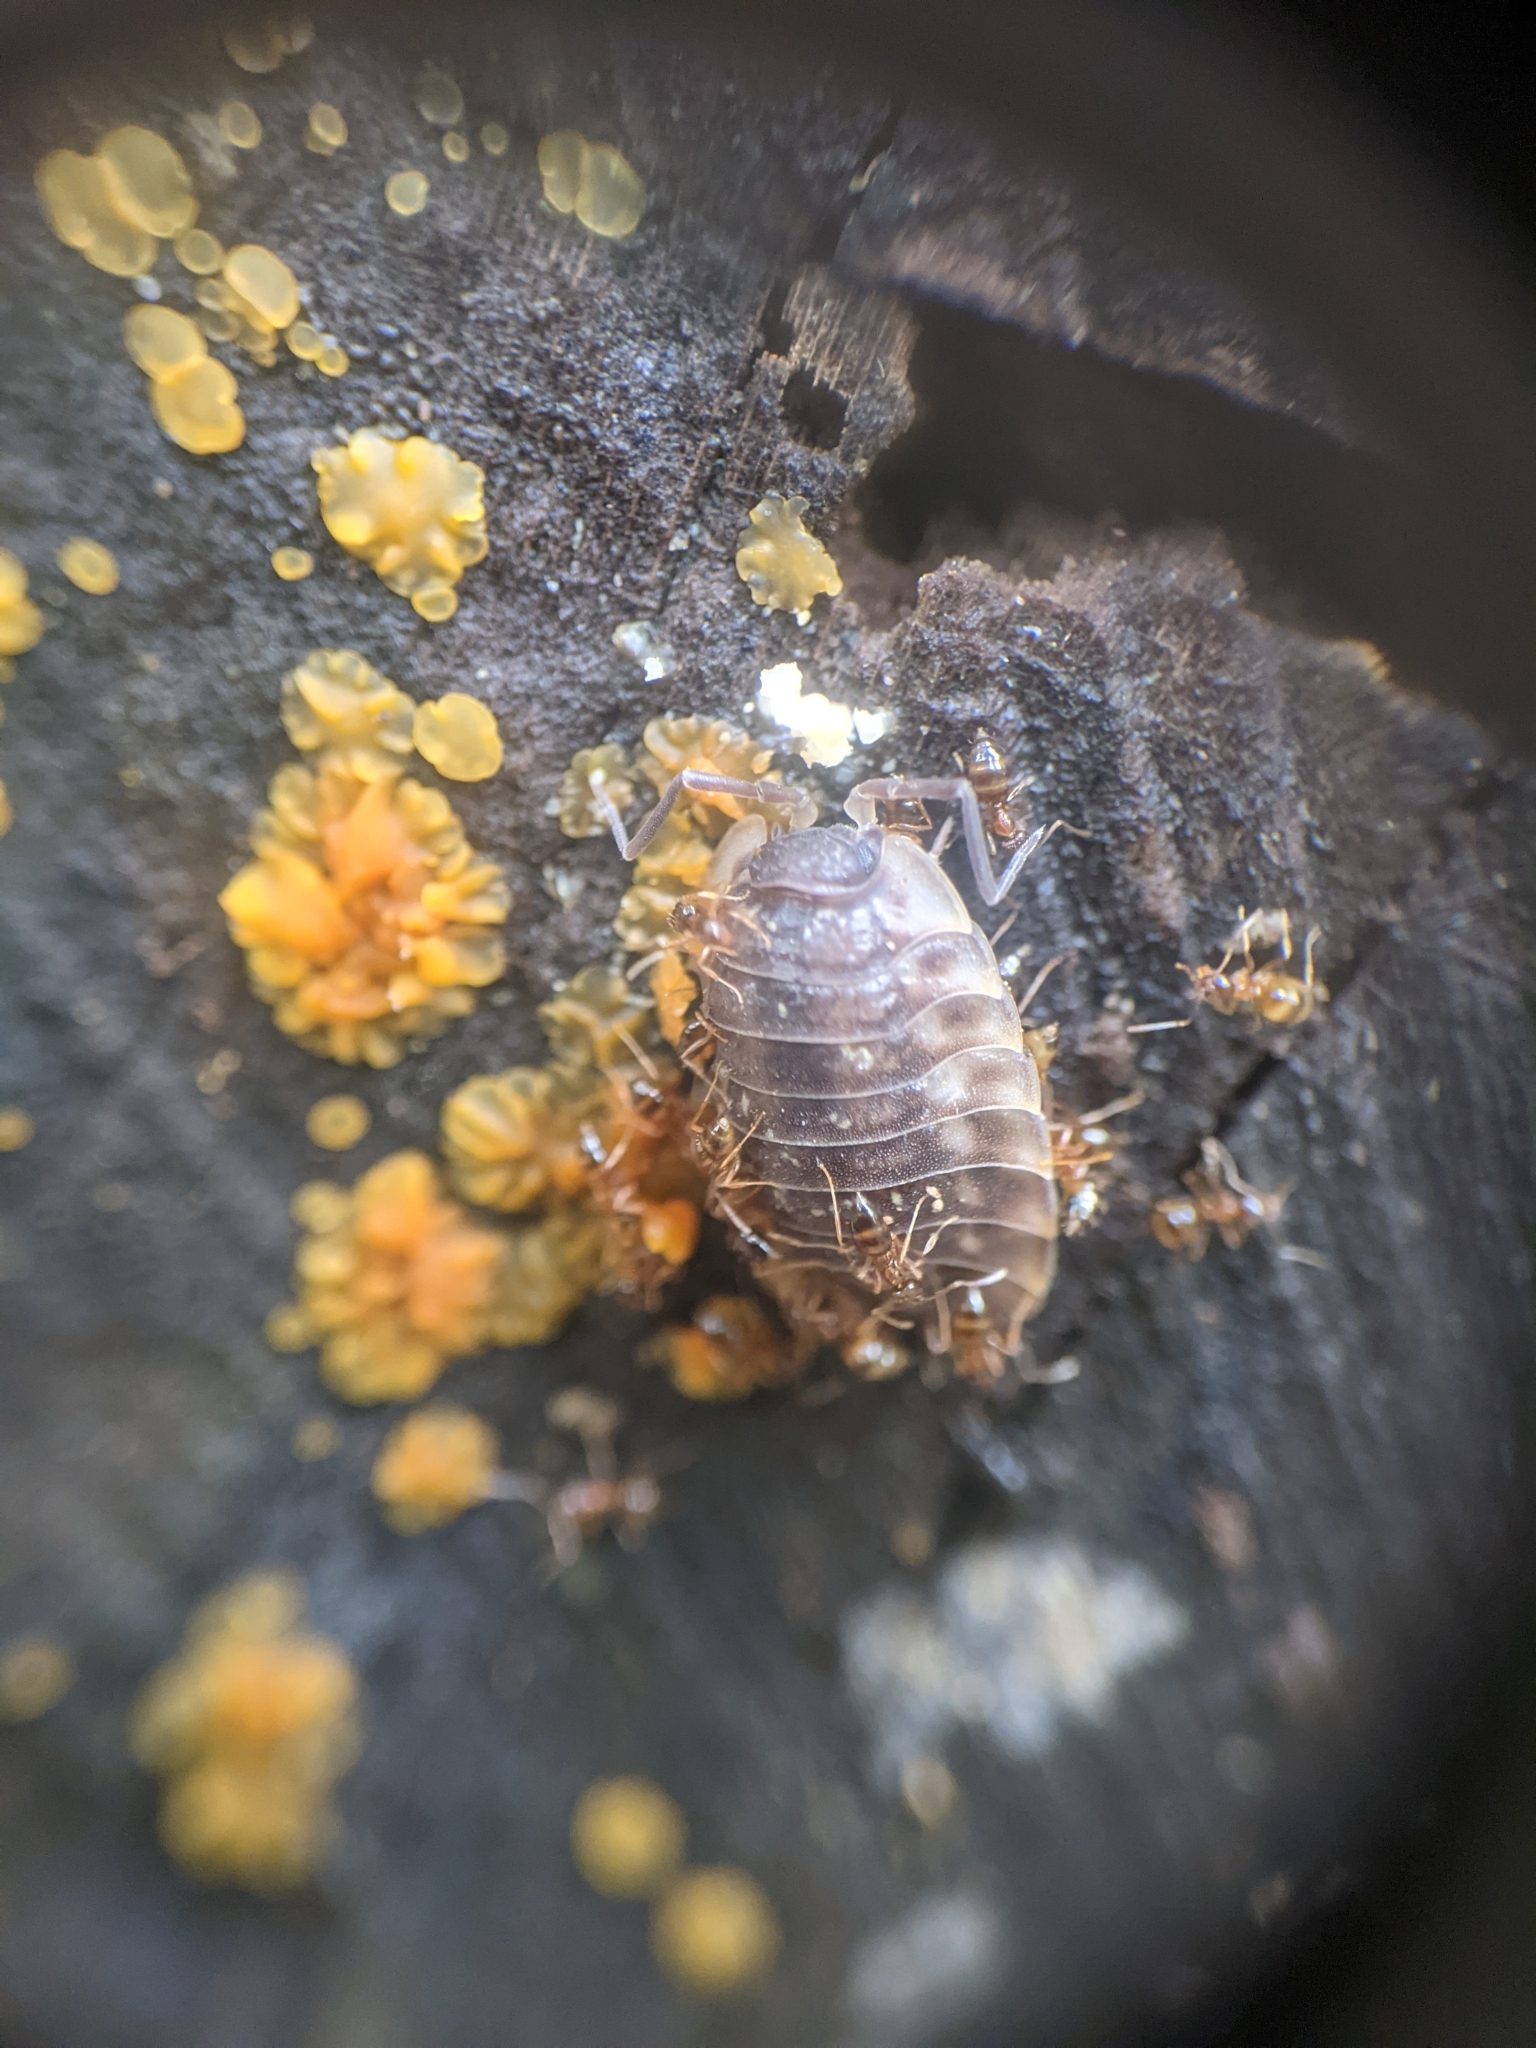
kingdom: Animalia
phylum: Arthropoda
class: Insecta
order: Hymenoptera
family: Formicidae
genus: Paratrechina
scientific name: Paratrechina flavipes
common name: Eastern asian formicine ant
